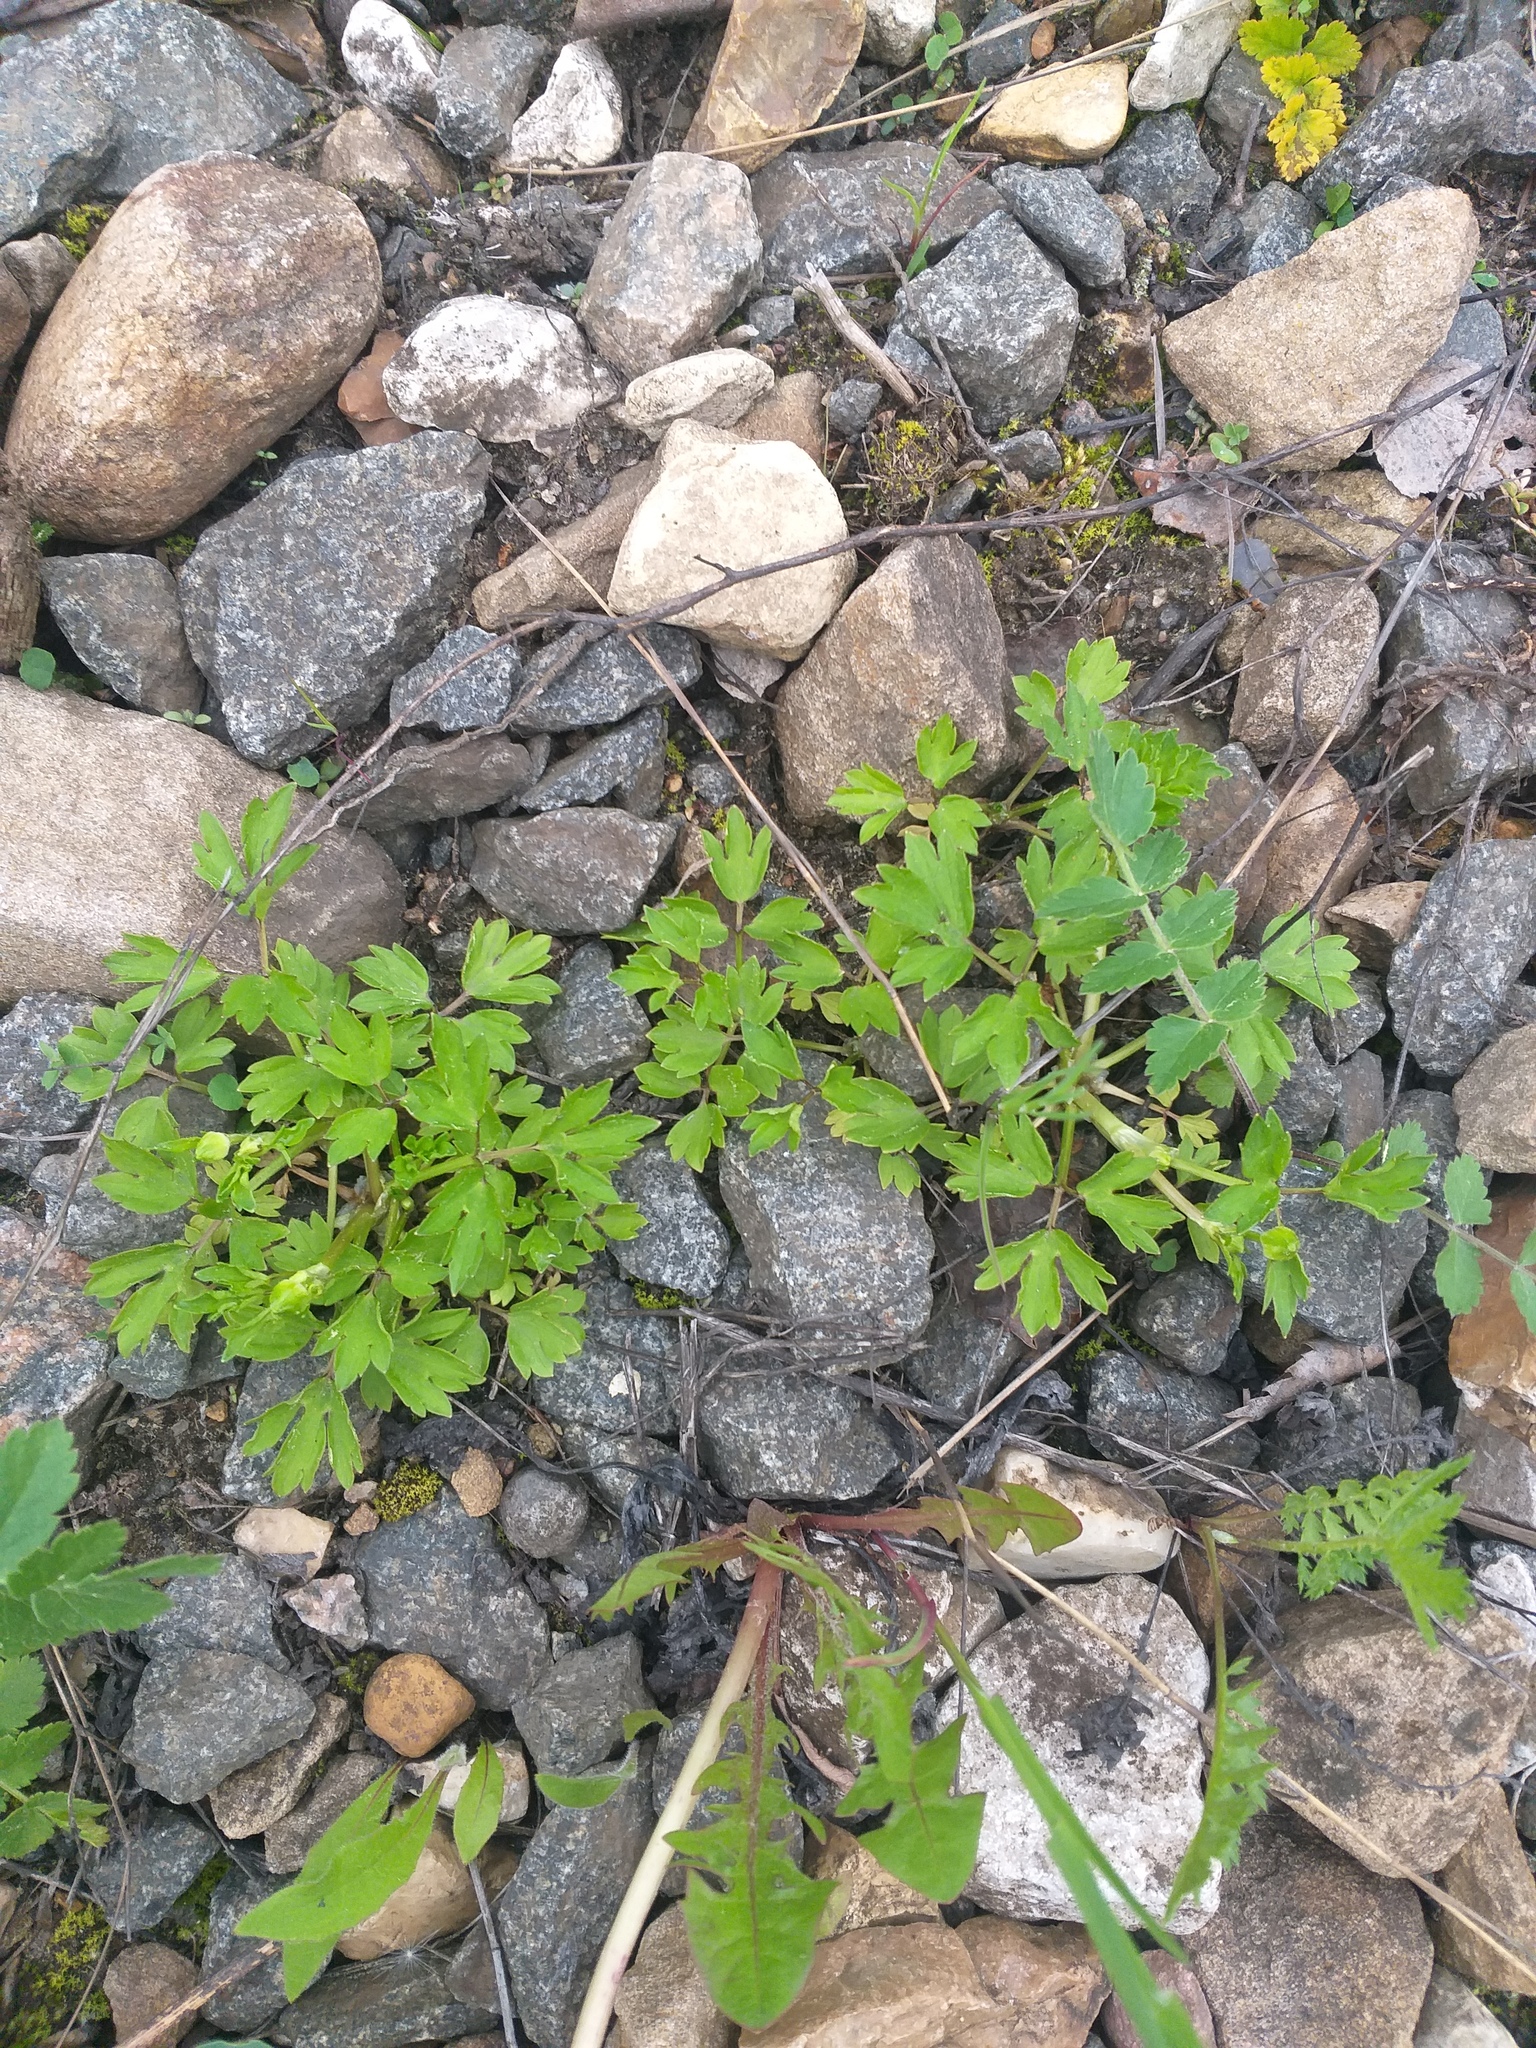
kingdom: Plantae
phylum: Tracheophyta
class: Magnoliopsida
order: Ranunculales
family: Ranunculaceae
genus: Ranunculus
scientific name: Ranunculus repens
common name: Creeping buttercup
